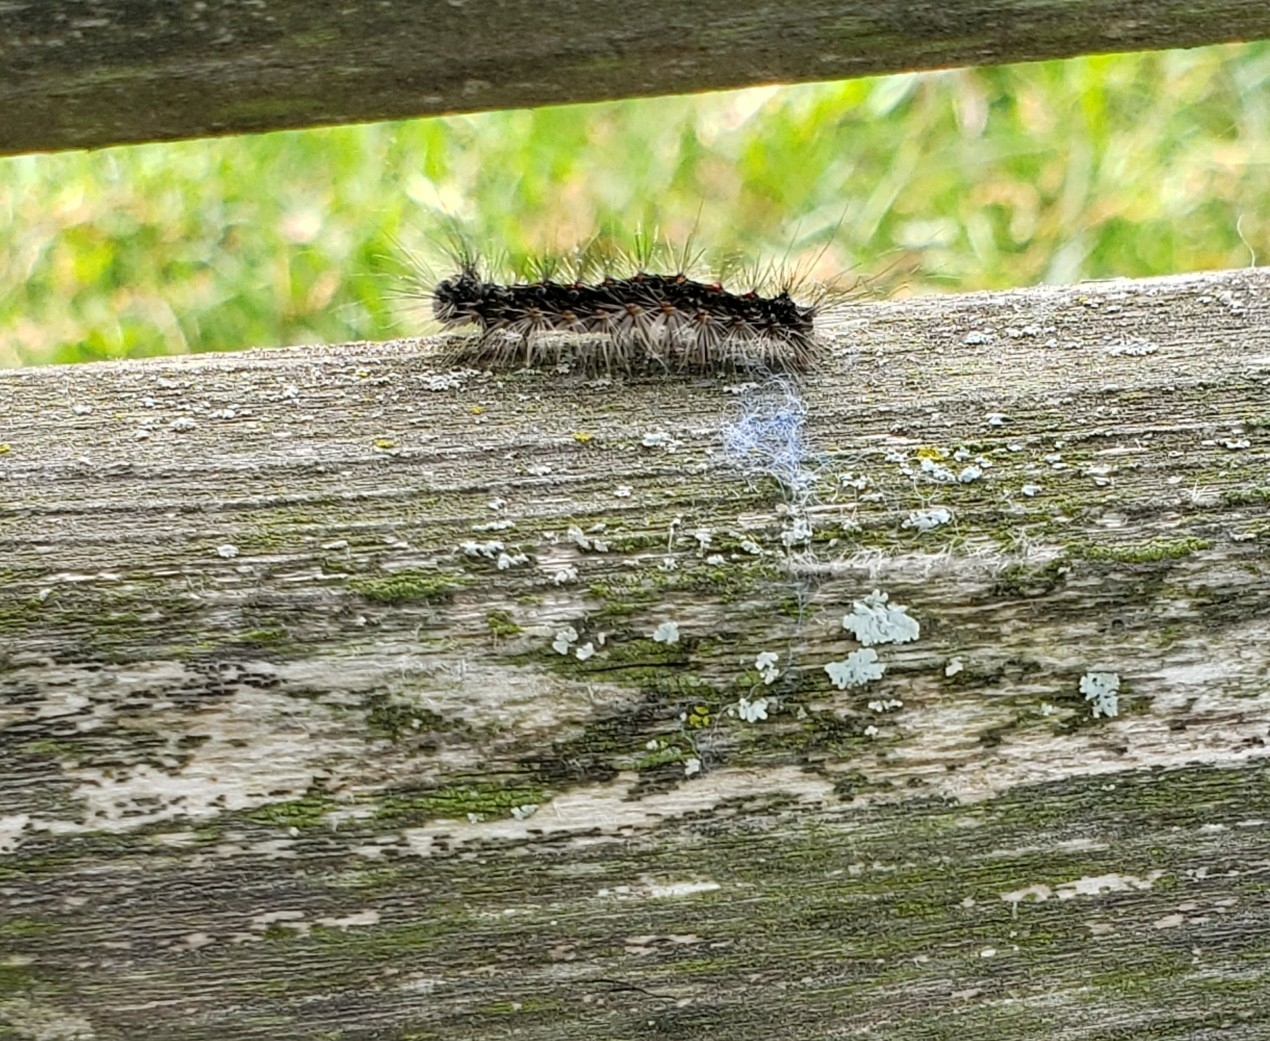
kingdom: Animalia
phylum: Arthropoda
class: Insecta
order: Lepidoptera
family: Erebidae
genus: Lymantria
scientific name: Lymantria dispar
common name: Gypsy moth
